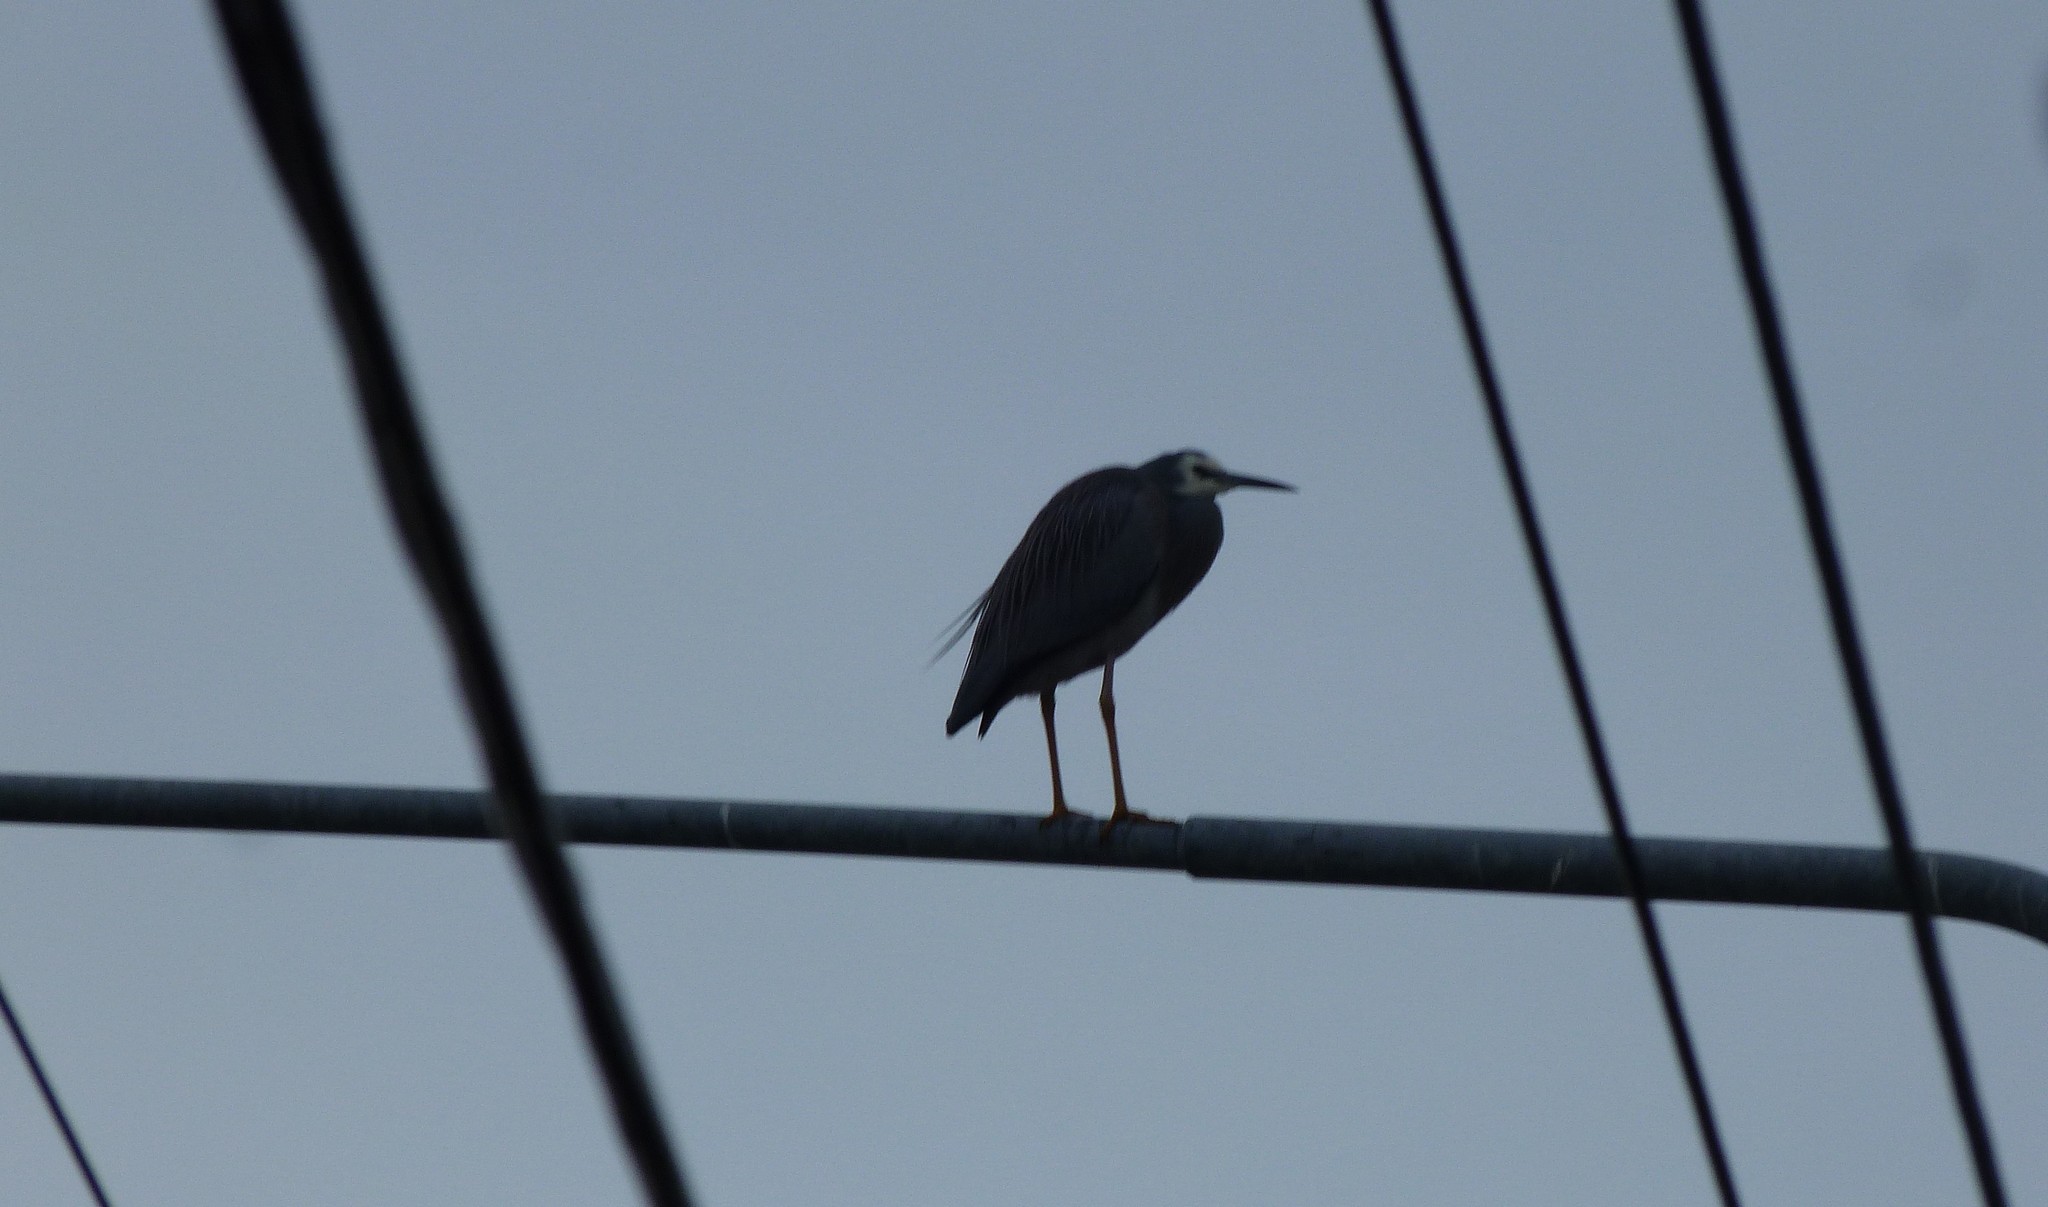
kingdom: Animalia
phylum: Chordata
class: Aves
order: Pelecaniformes
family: Ardeidae
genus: Egretta
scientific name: Egretta novaehollandiae
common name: White-faced heron
